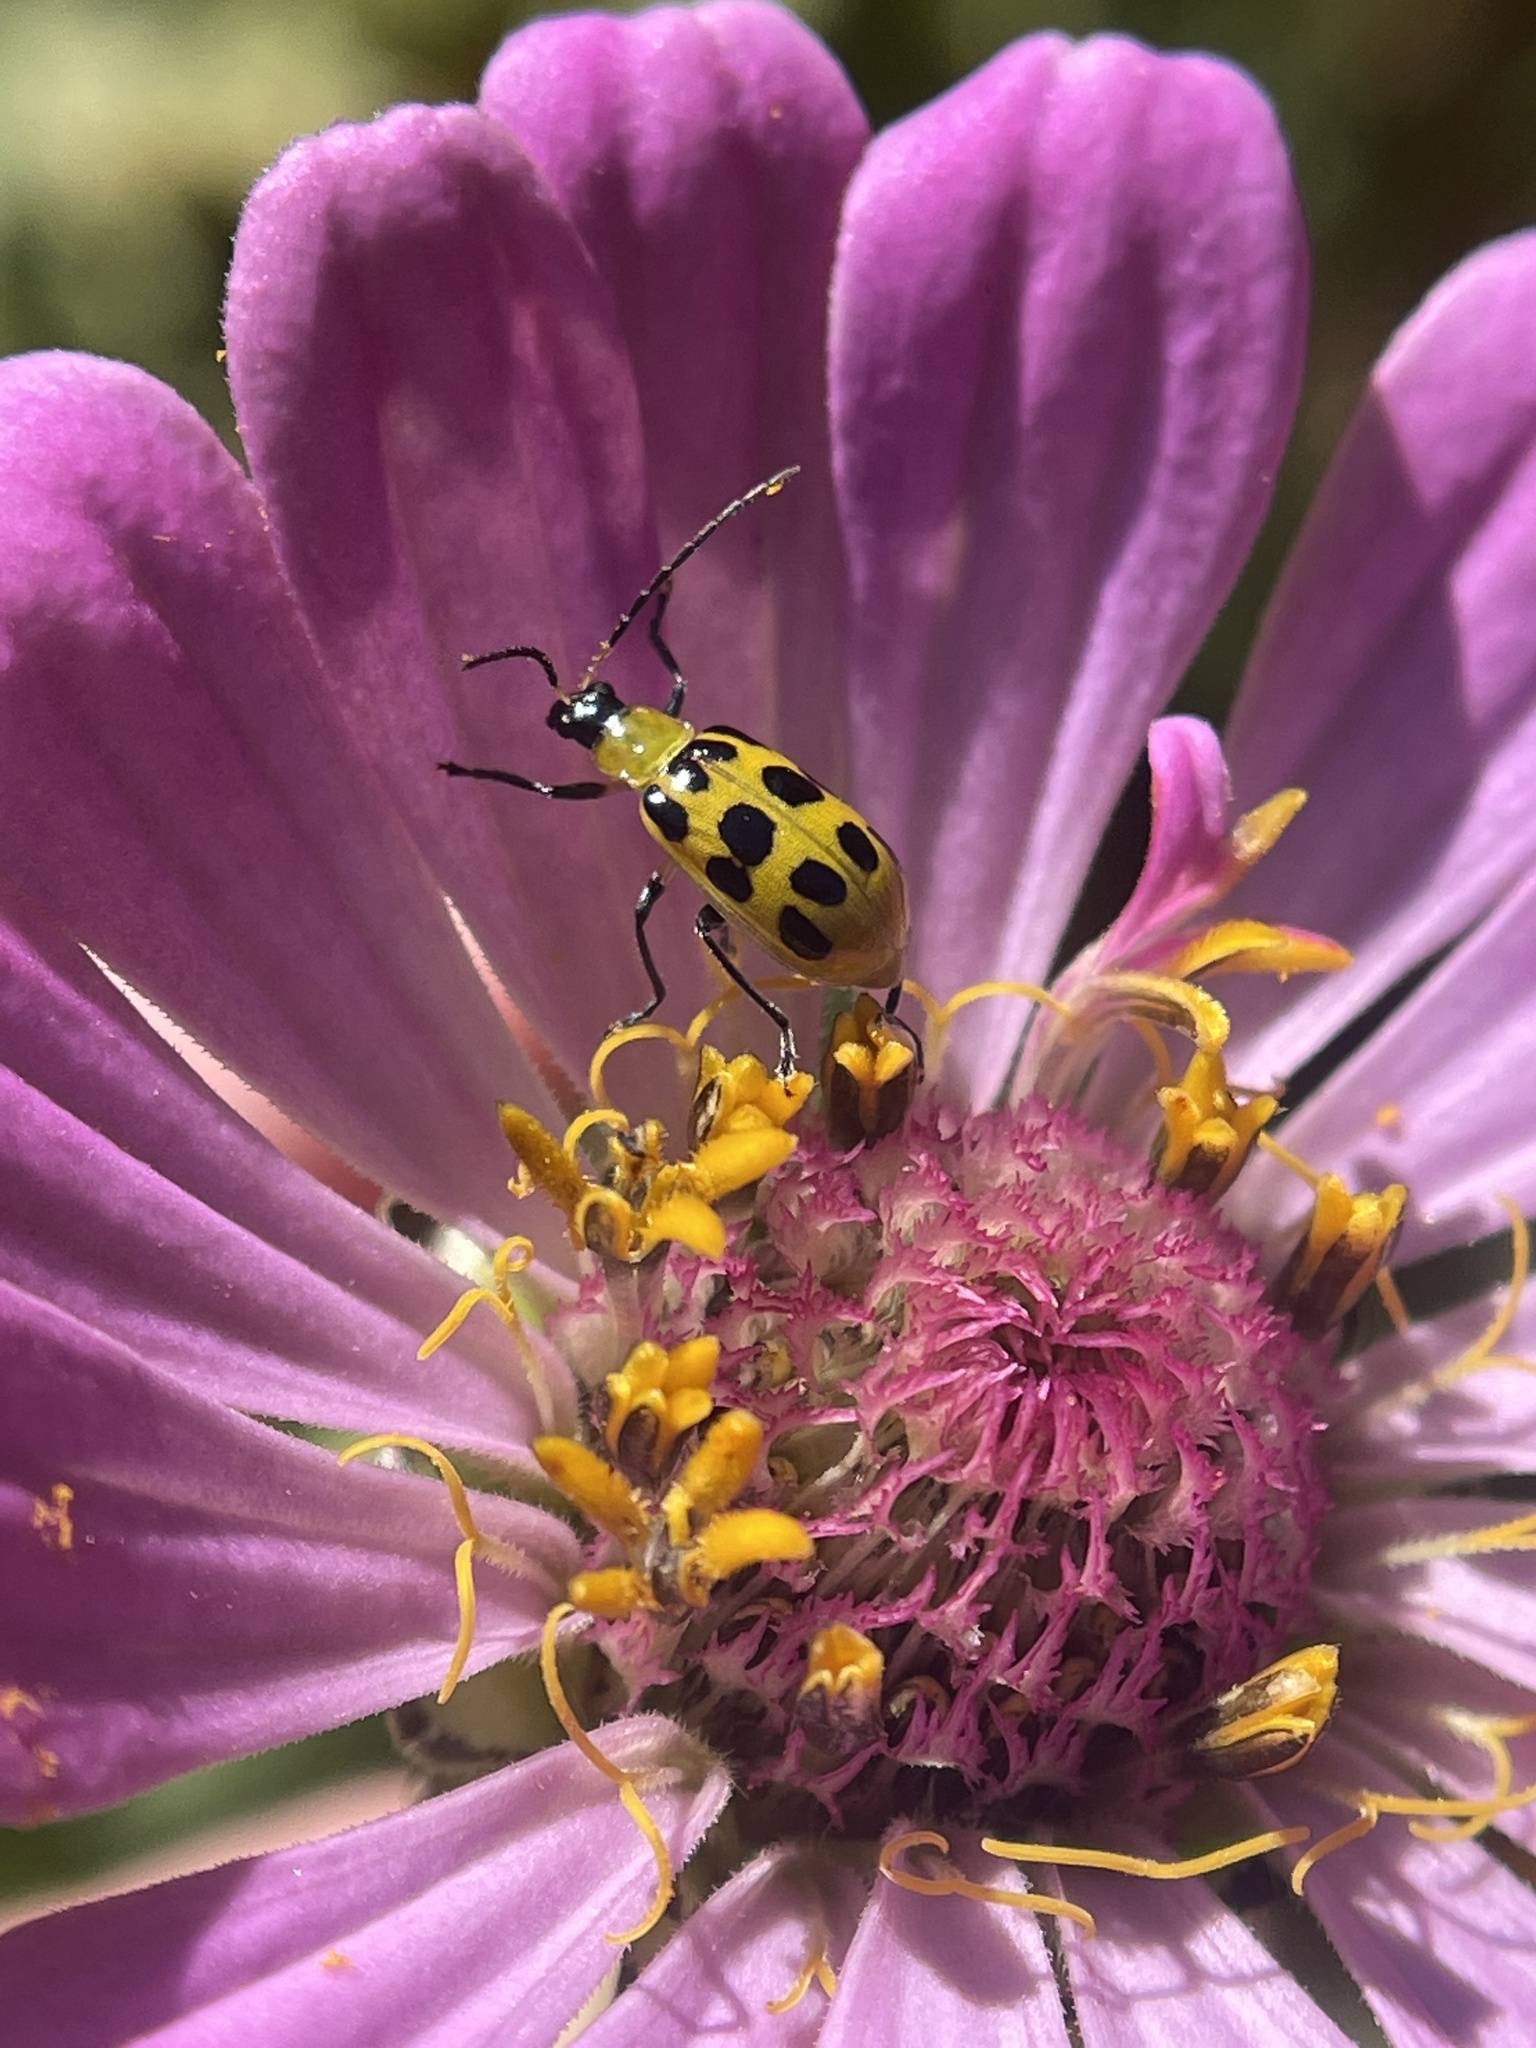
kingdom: Animalia
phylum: Arthropoda
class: Insecta
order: Coleoptera
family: Chrysomelidae
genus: Diabrotica
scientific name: Diabrotica undecimpunctata
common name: Spotted cucumber beetle
